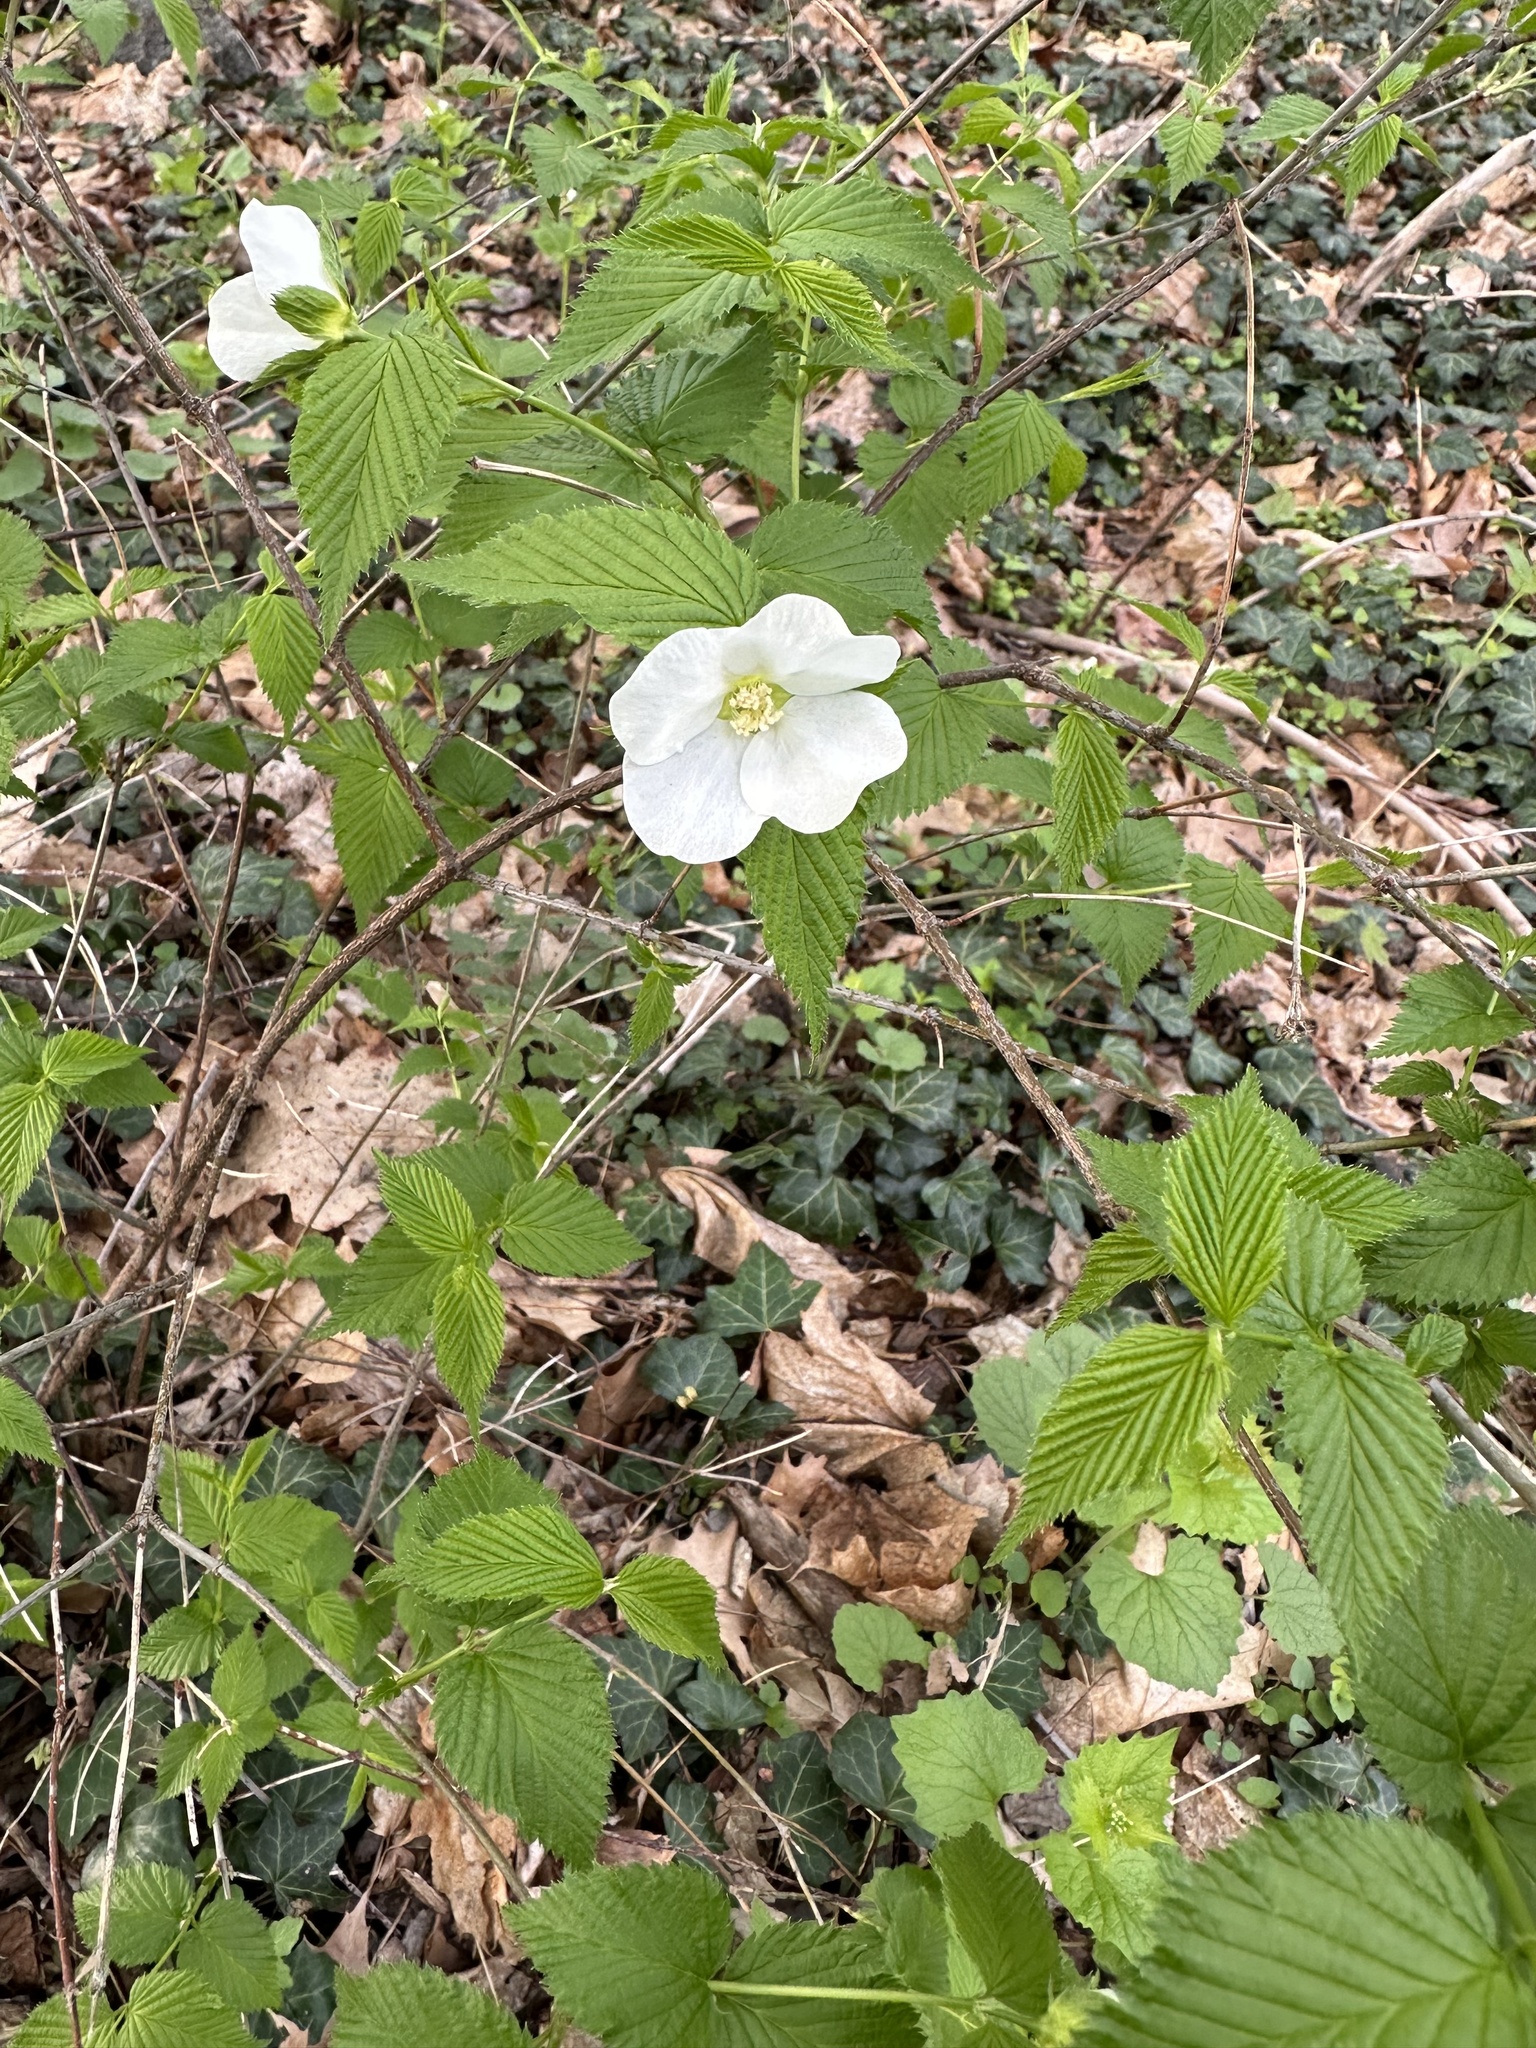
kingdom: Plantae
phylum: Tracheophyta
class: Magnoliopsida
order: Rosales
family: Rosaceae
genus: Rhodotypos
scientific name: Rhodotypos scandens
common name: Jetbead
